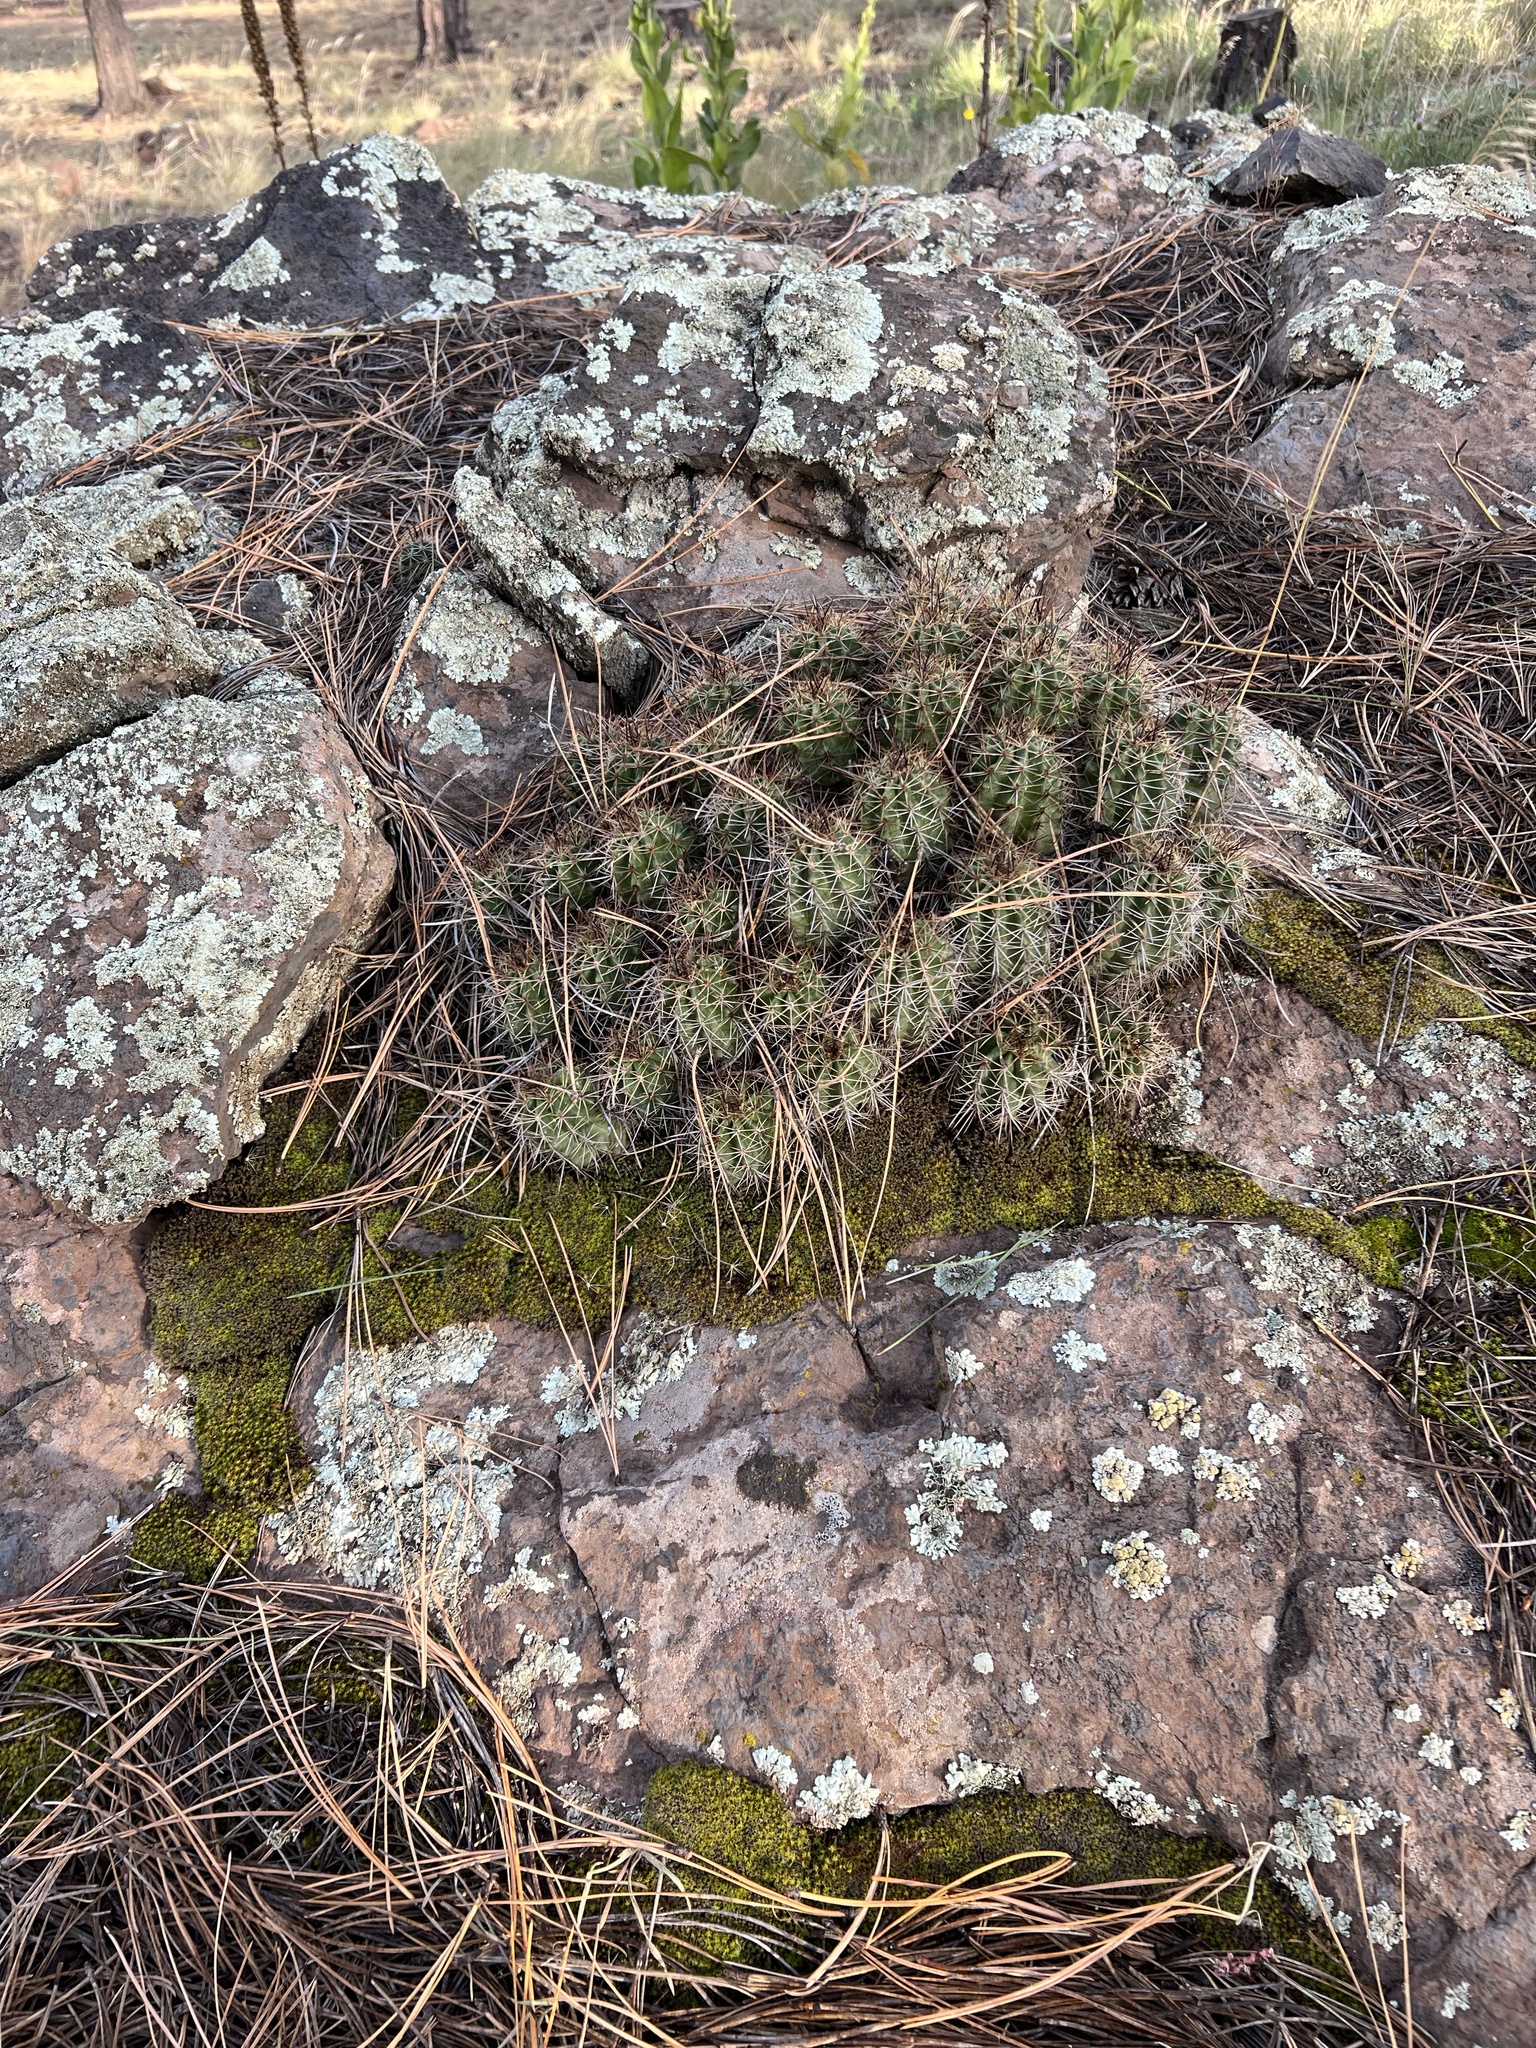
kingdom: Plantae
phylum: Tracheophyta
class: Magnoliopsida
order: Caryophyllales
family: Cactaceae
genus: Echinocereus
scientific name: Echinocereus bakeri
